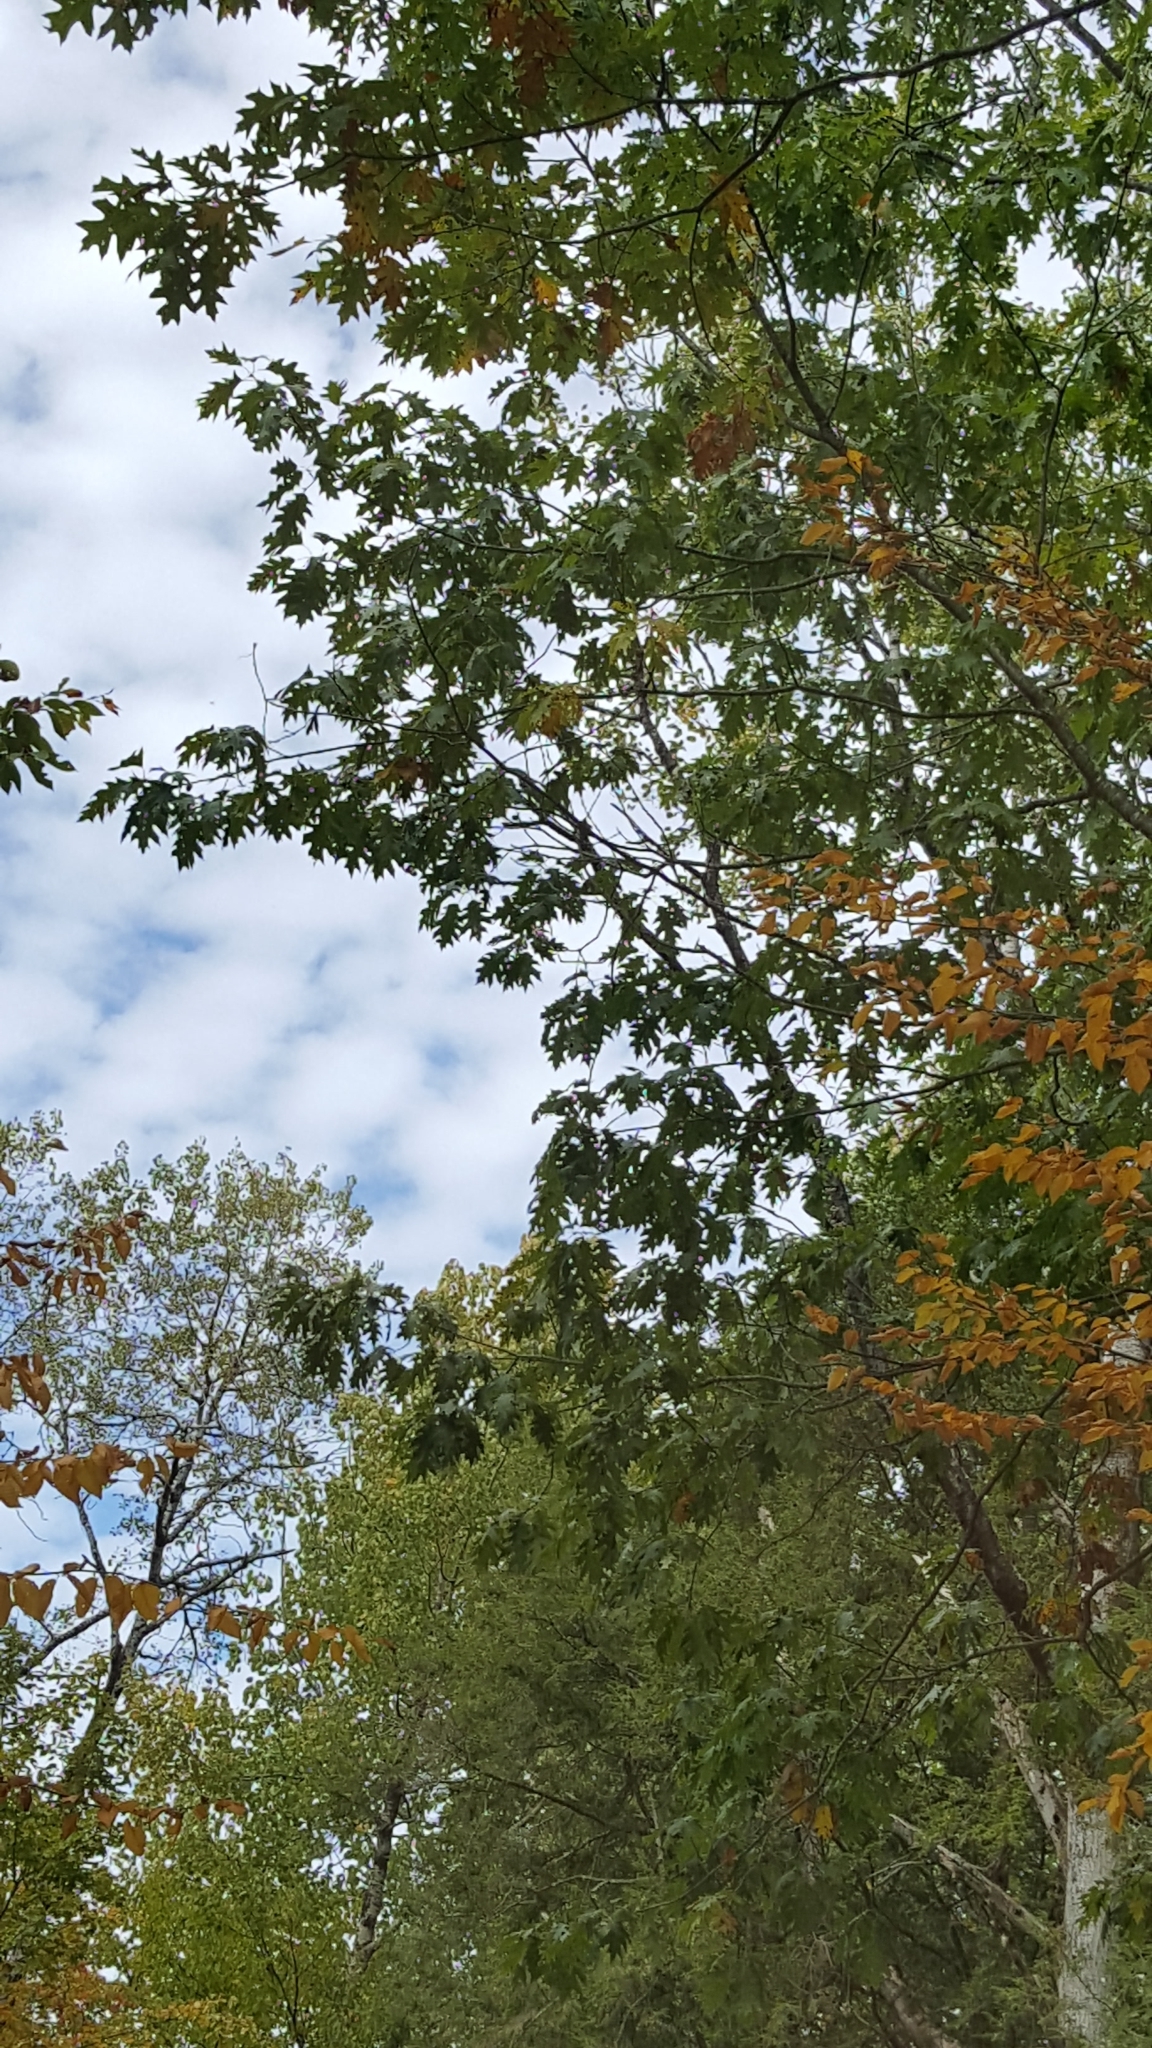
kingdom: Plantae
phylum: Tracheophyta
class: Magnoliopsida
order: Fagales
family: Fagaceae
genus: Quercus
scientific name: Quercus rubra
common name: Red oak
